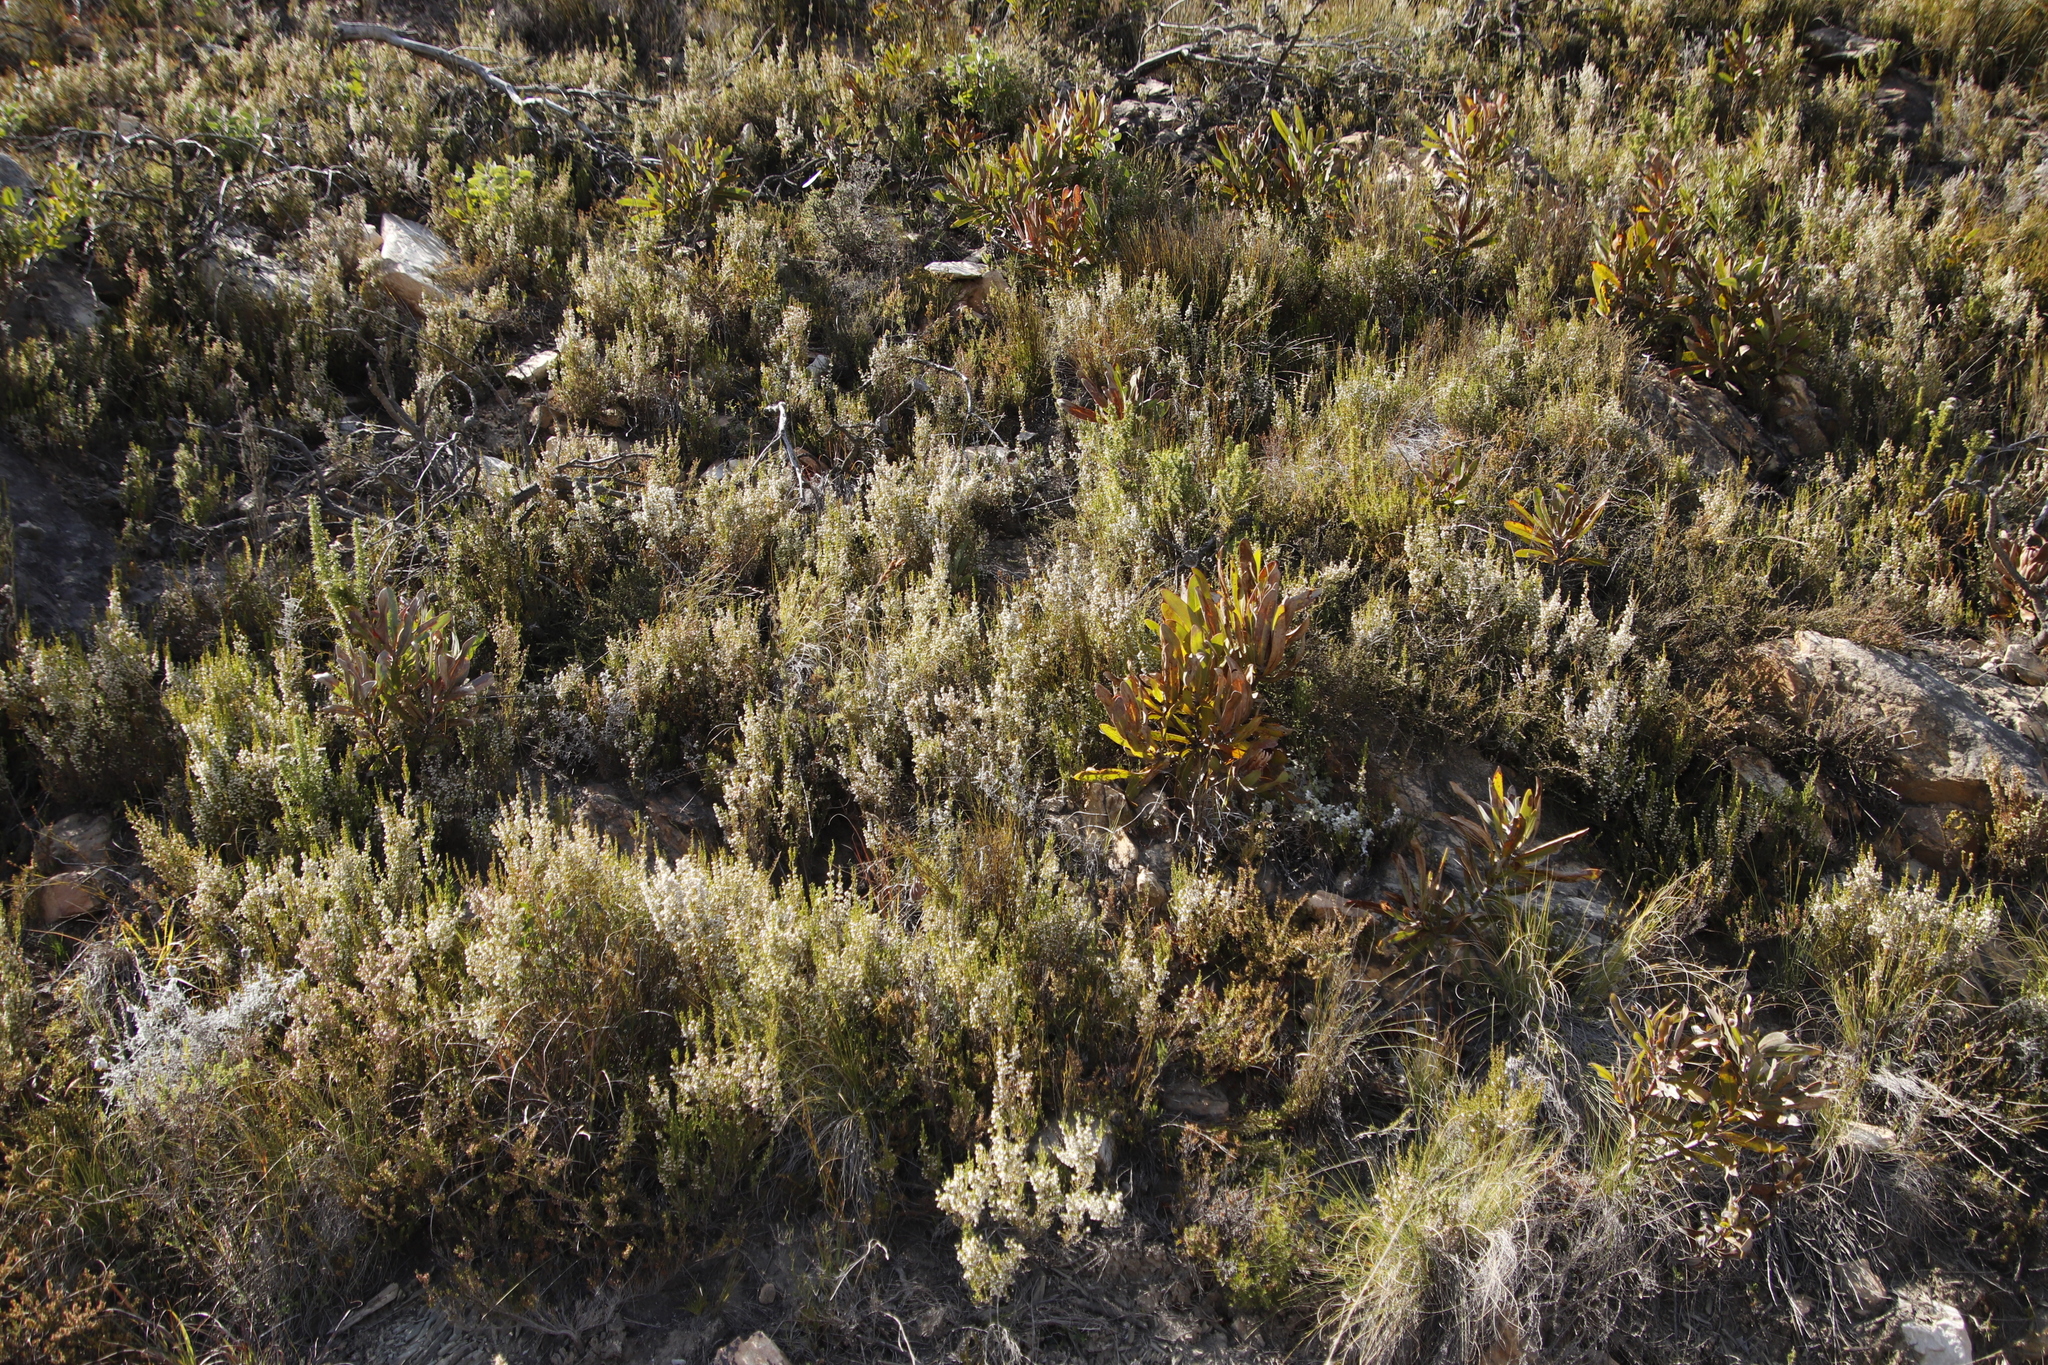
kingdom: Plantae
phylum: Tracheophyta
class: Magnoliopsida
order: Proteales
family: Proteaceae
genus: Protea
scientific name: Protea lorifolia
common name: Strap-leaved protea
